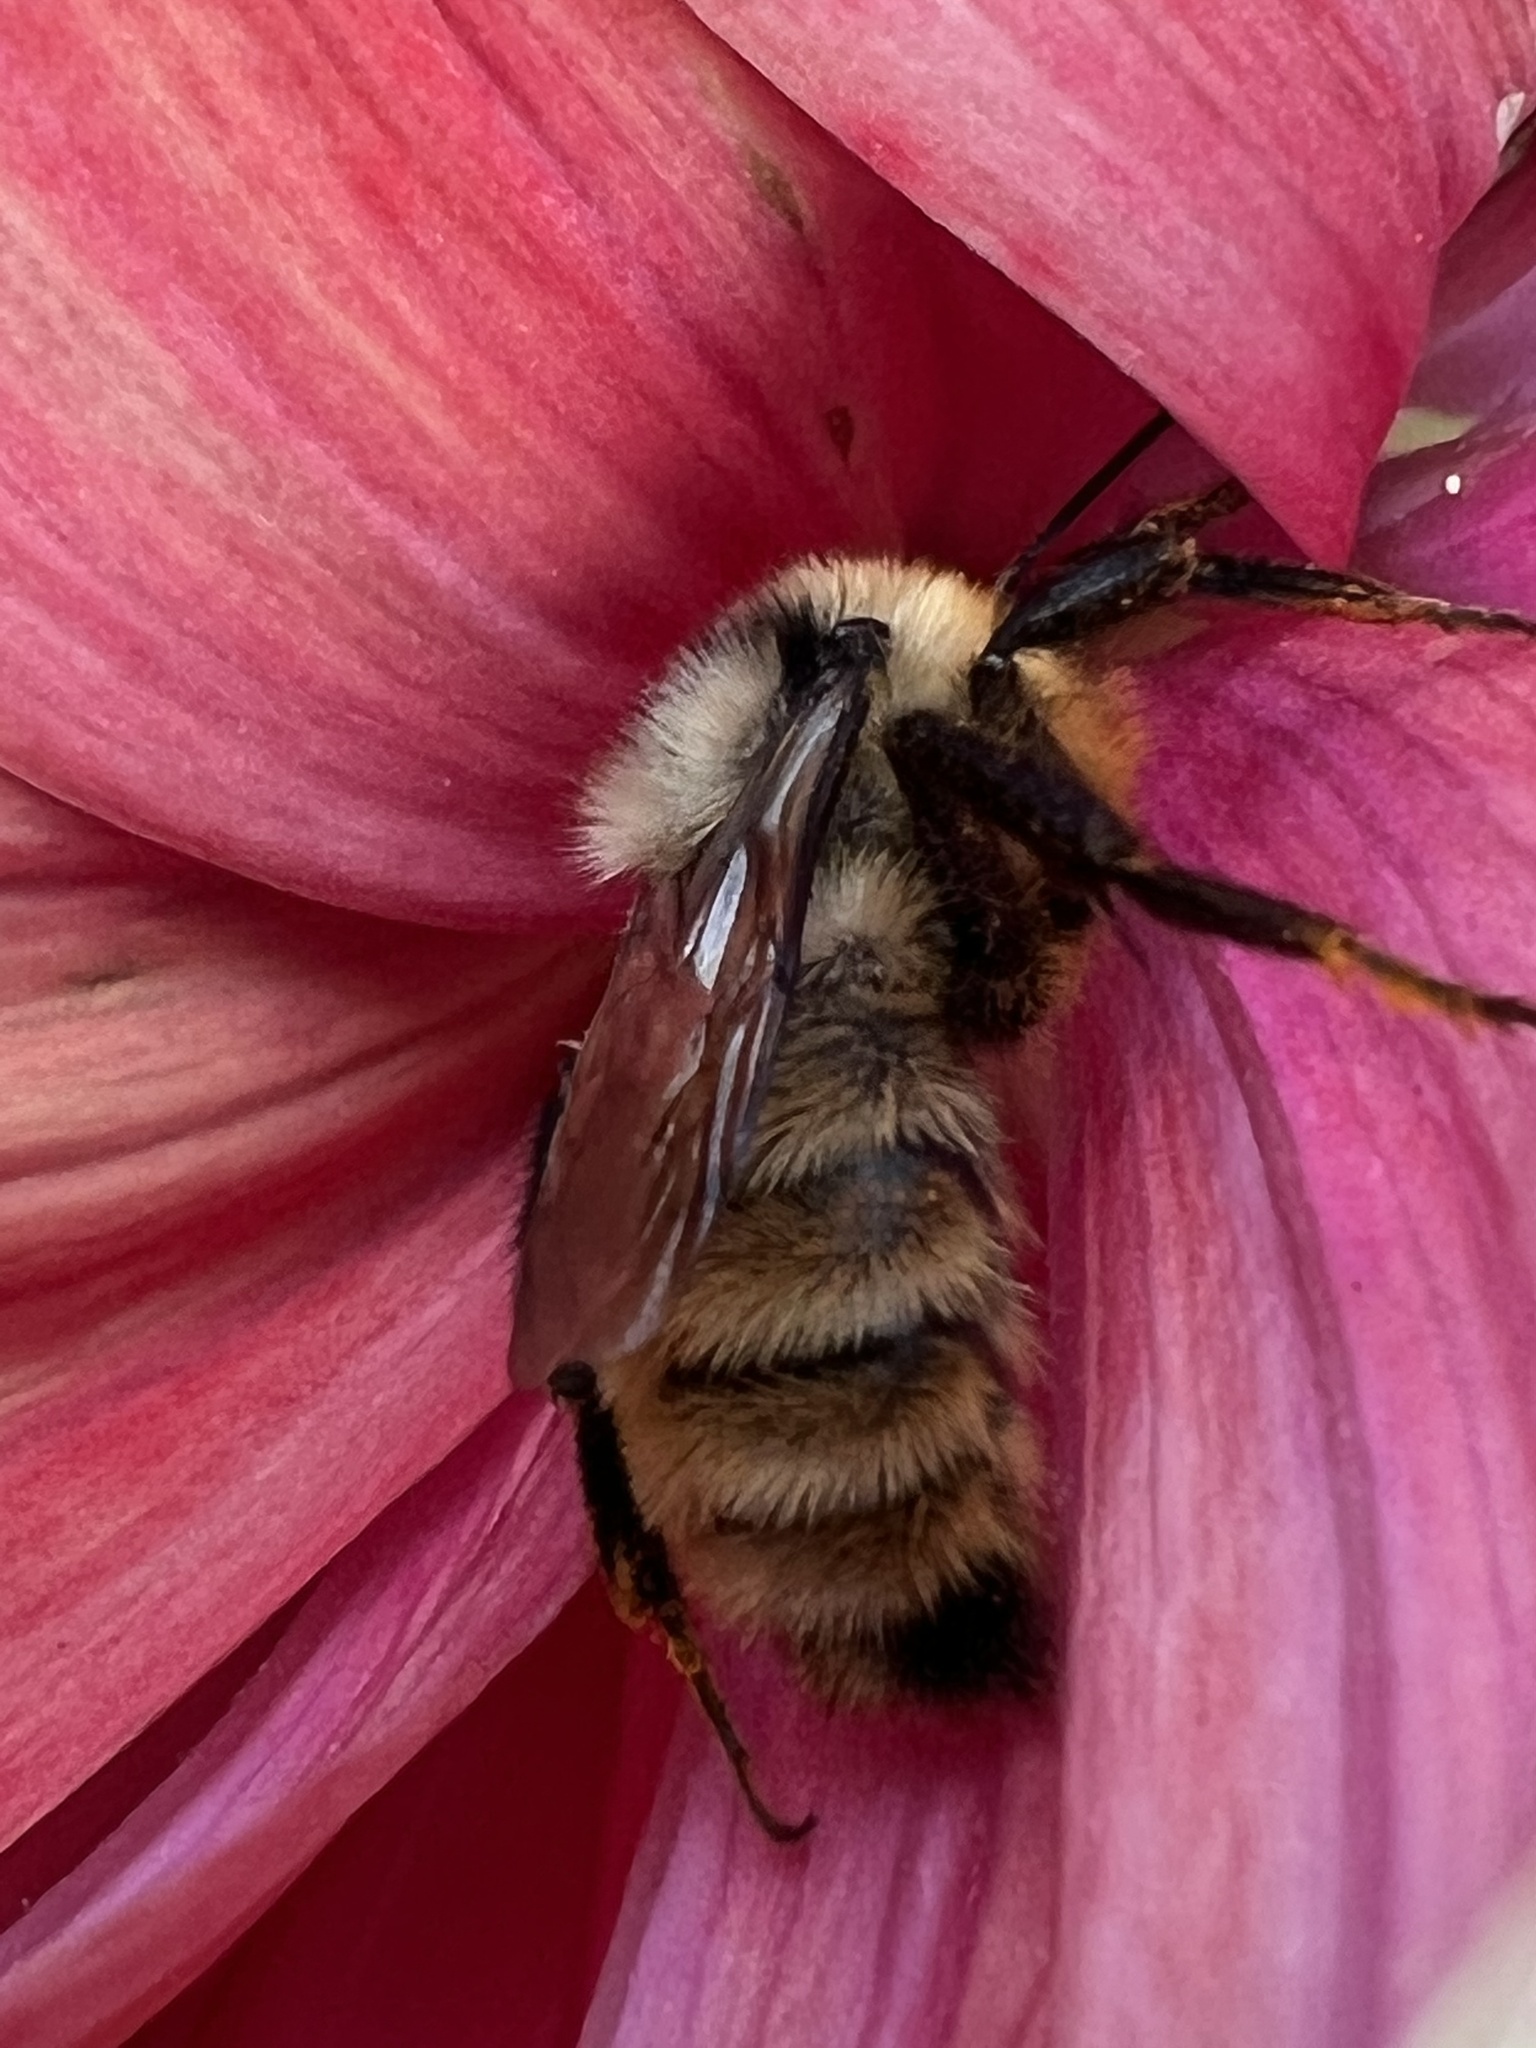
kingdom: Animalia
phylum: Arthropoda
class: Insecta
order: Hymenoptera
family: Apidae
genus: Bombus
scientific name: Bombus fervidus
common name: Yellow bumble bee
